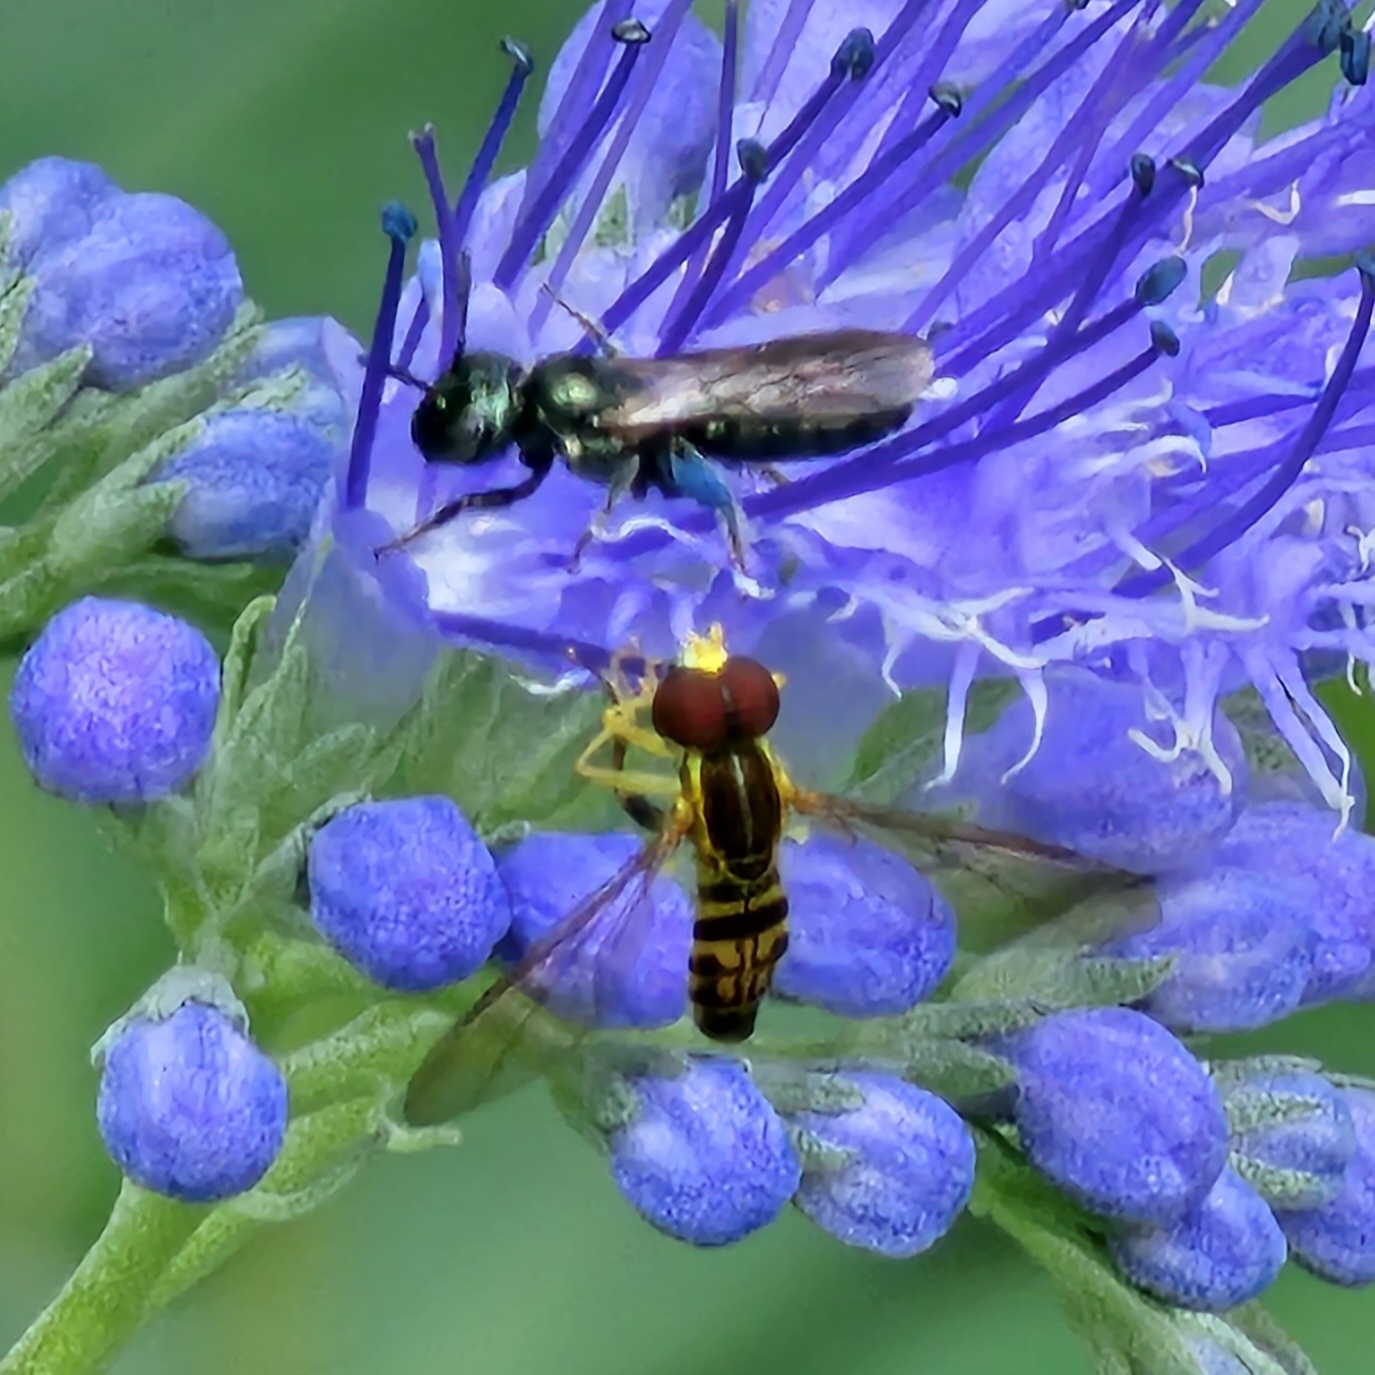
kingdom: Animalia
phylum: Arthropoda
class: Insecta
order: Diptera
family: Syrphidae
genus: Toxomerus
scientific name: Toxomerus geminatus
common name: Eastern calligrapher
